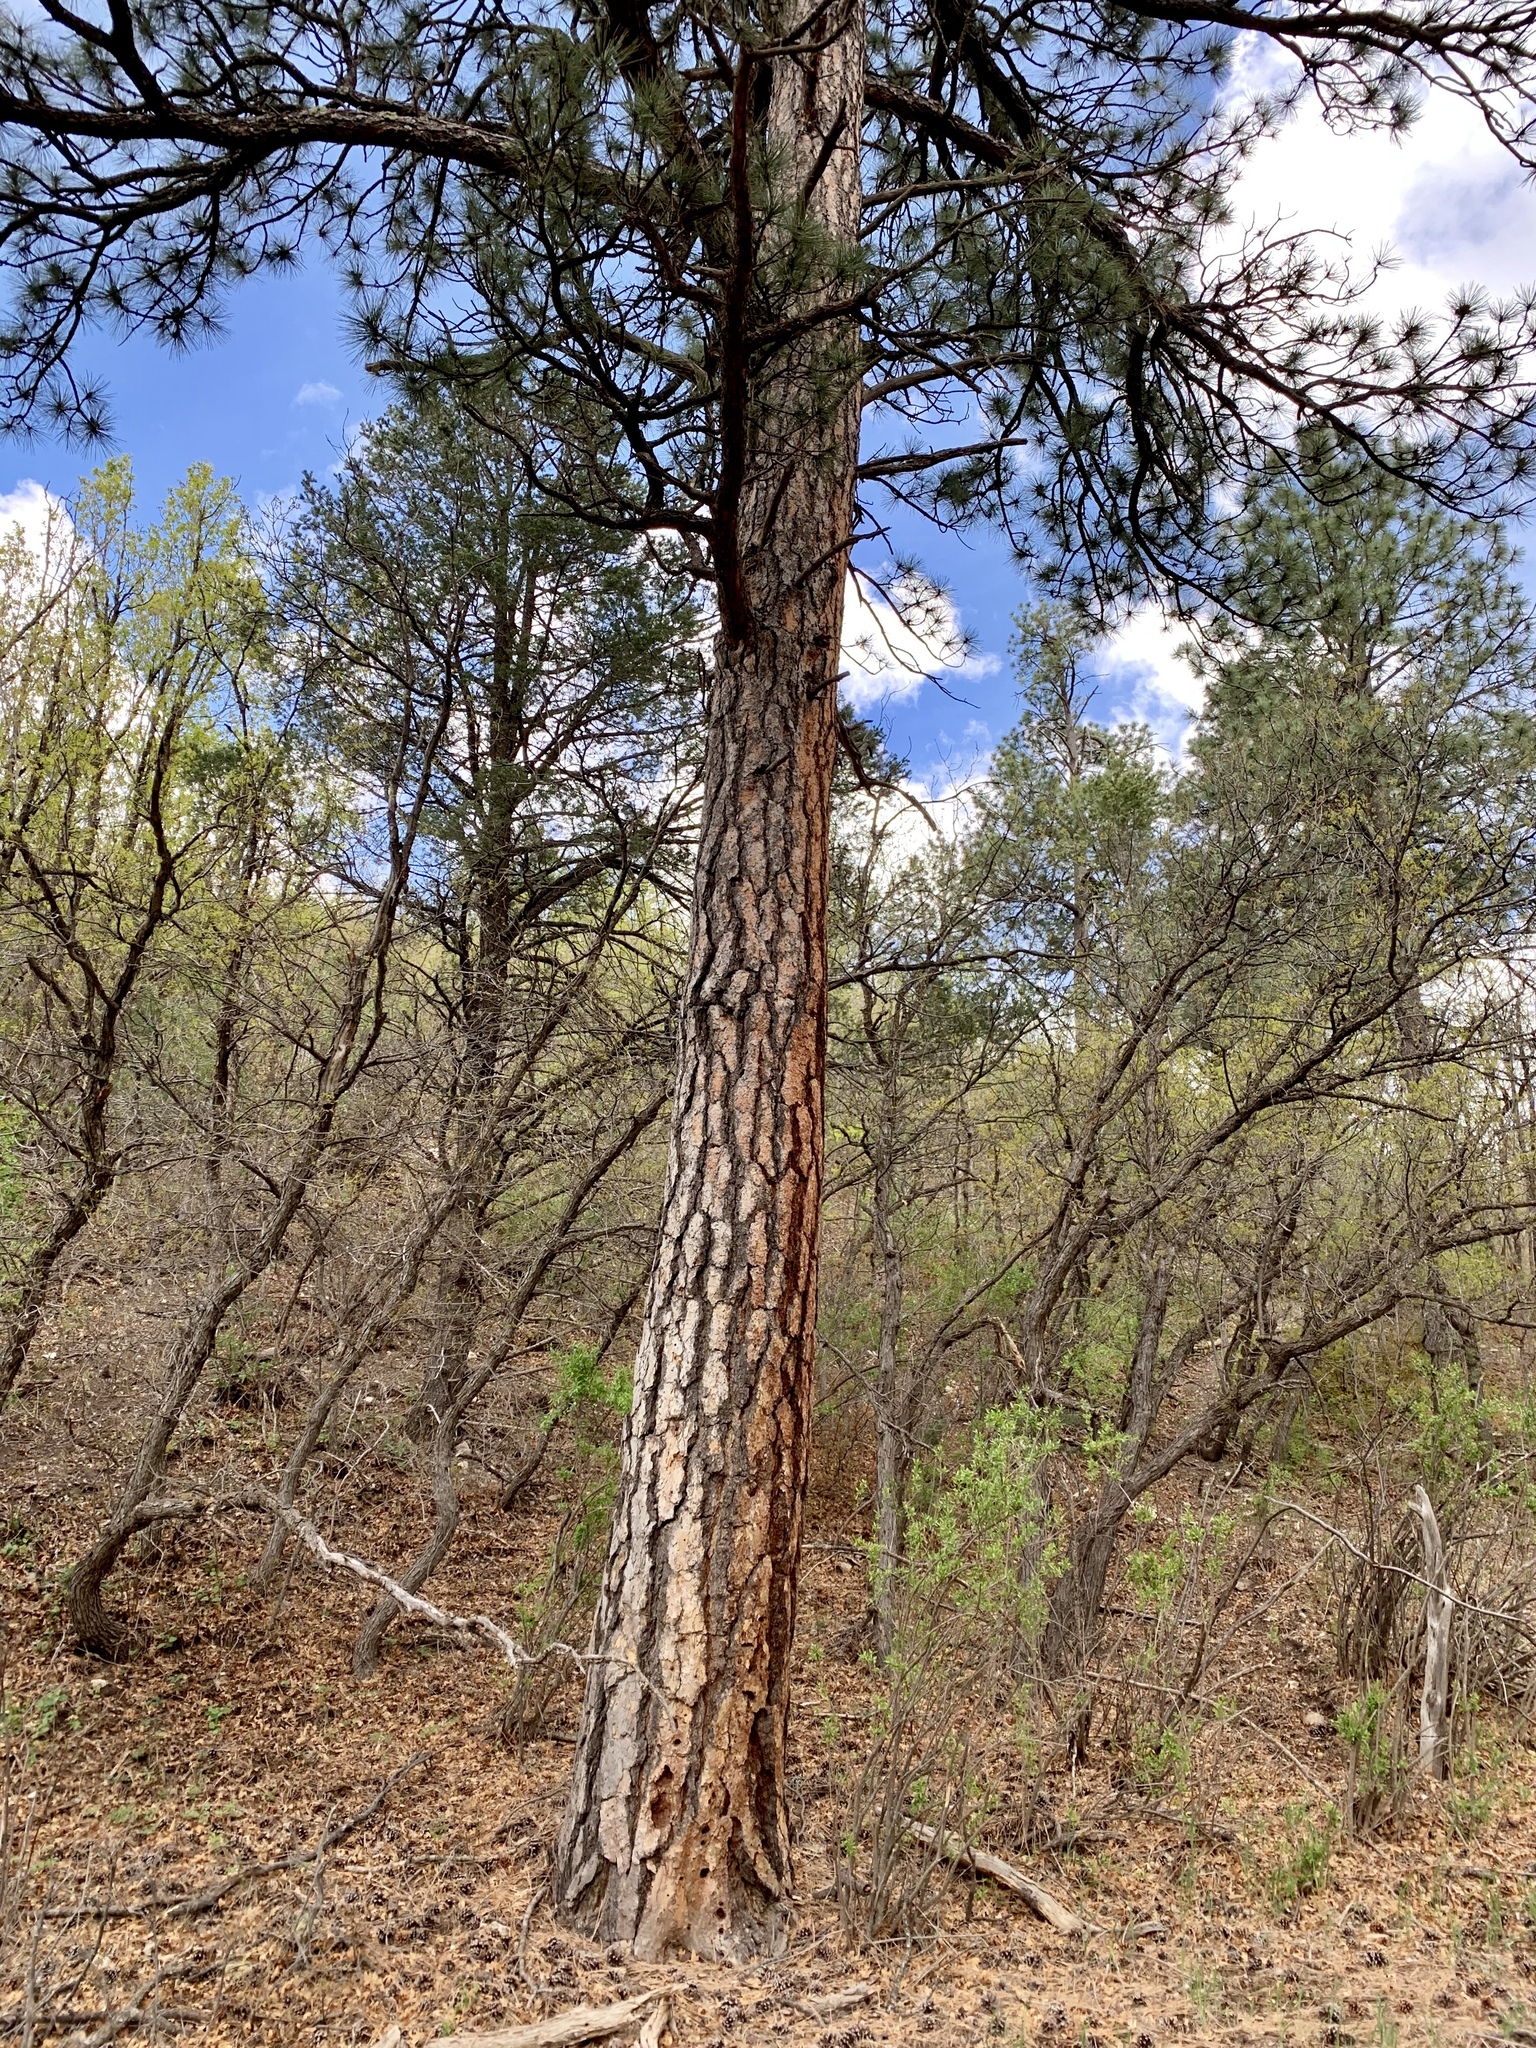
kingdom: Plantae
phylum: Tracheophyta
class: Pinopsida
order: Pinales
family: Pinaceae
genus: Pinus
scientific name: Pinus ponderosa
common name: Western yellow-pine
